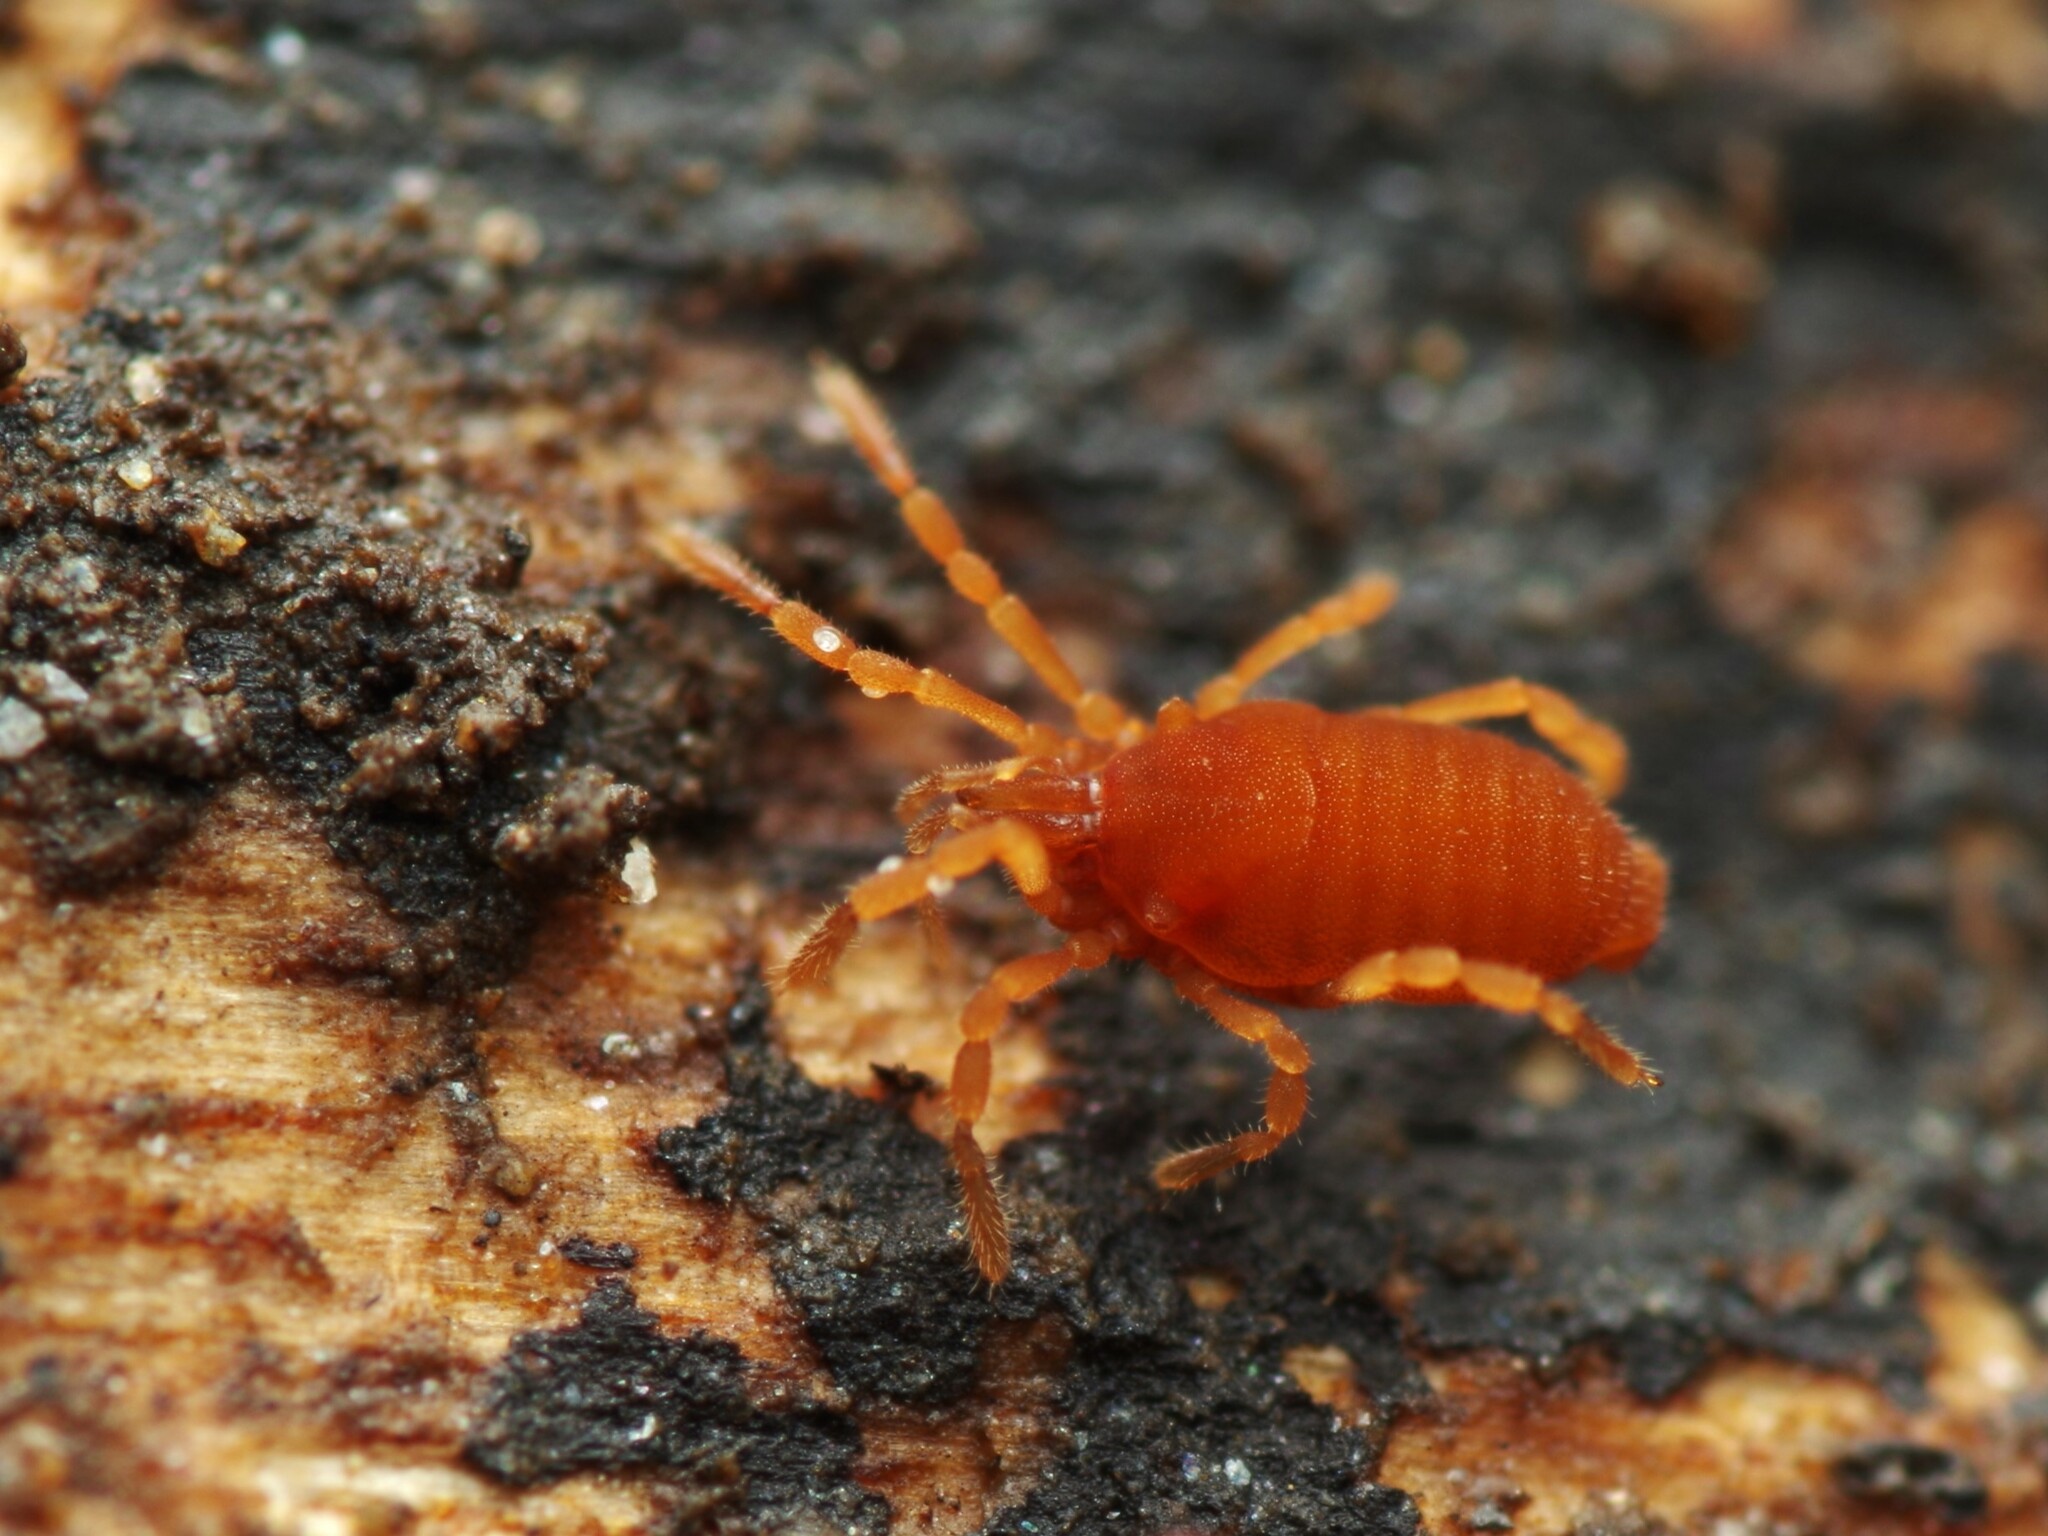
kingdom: Animalia
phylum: Arthropoda
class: Arachnida
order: Opiliones
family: Sironidae
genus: Siro
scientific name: Siro rubens
